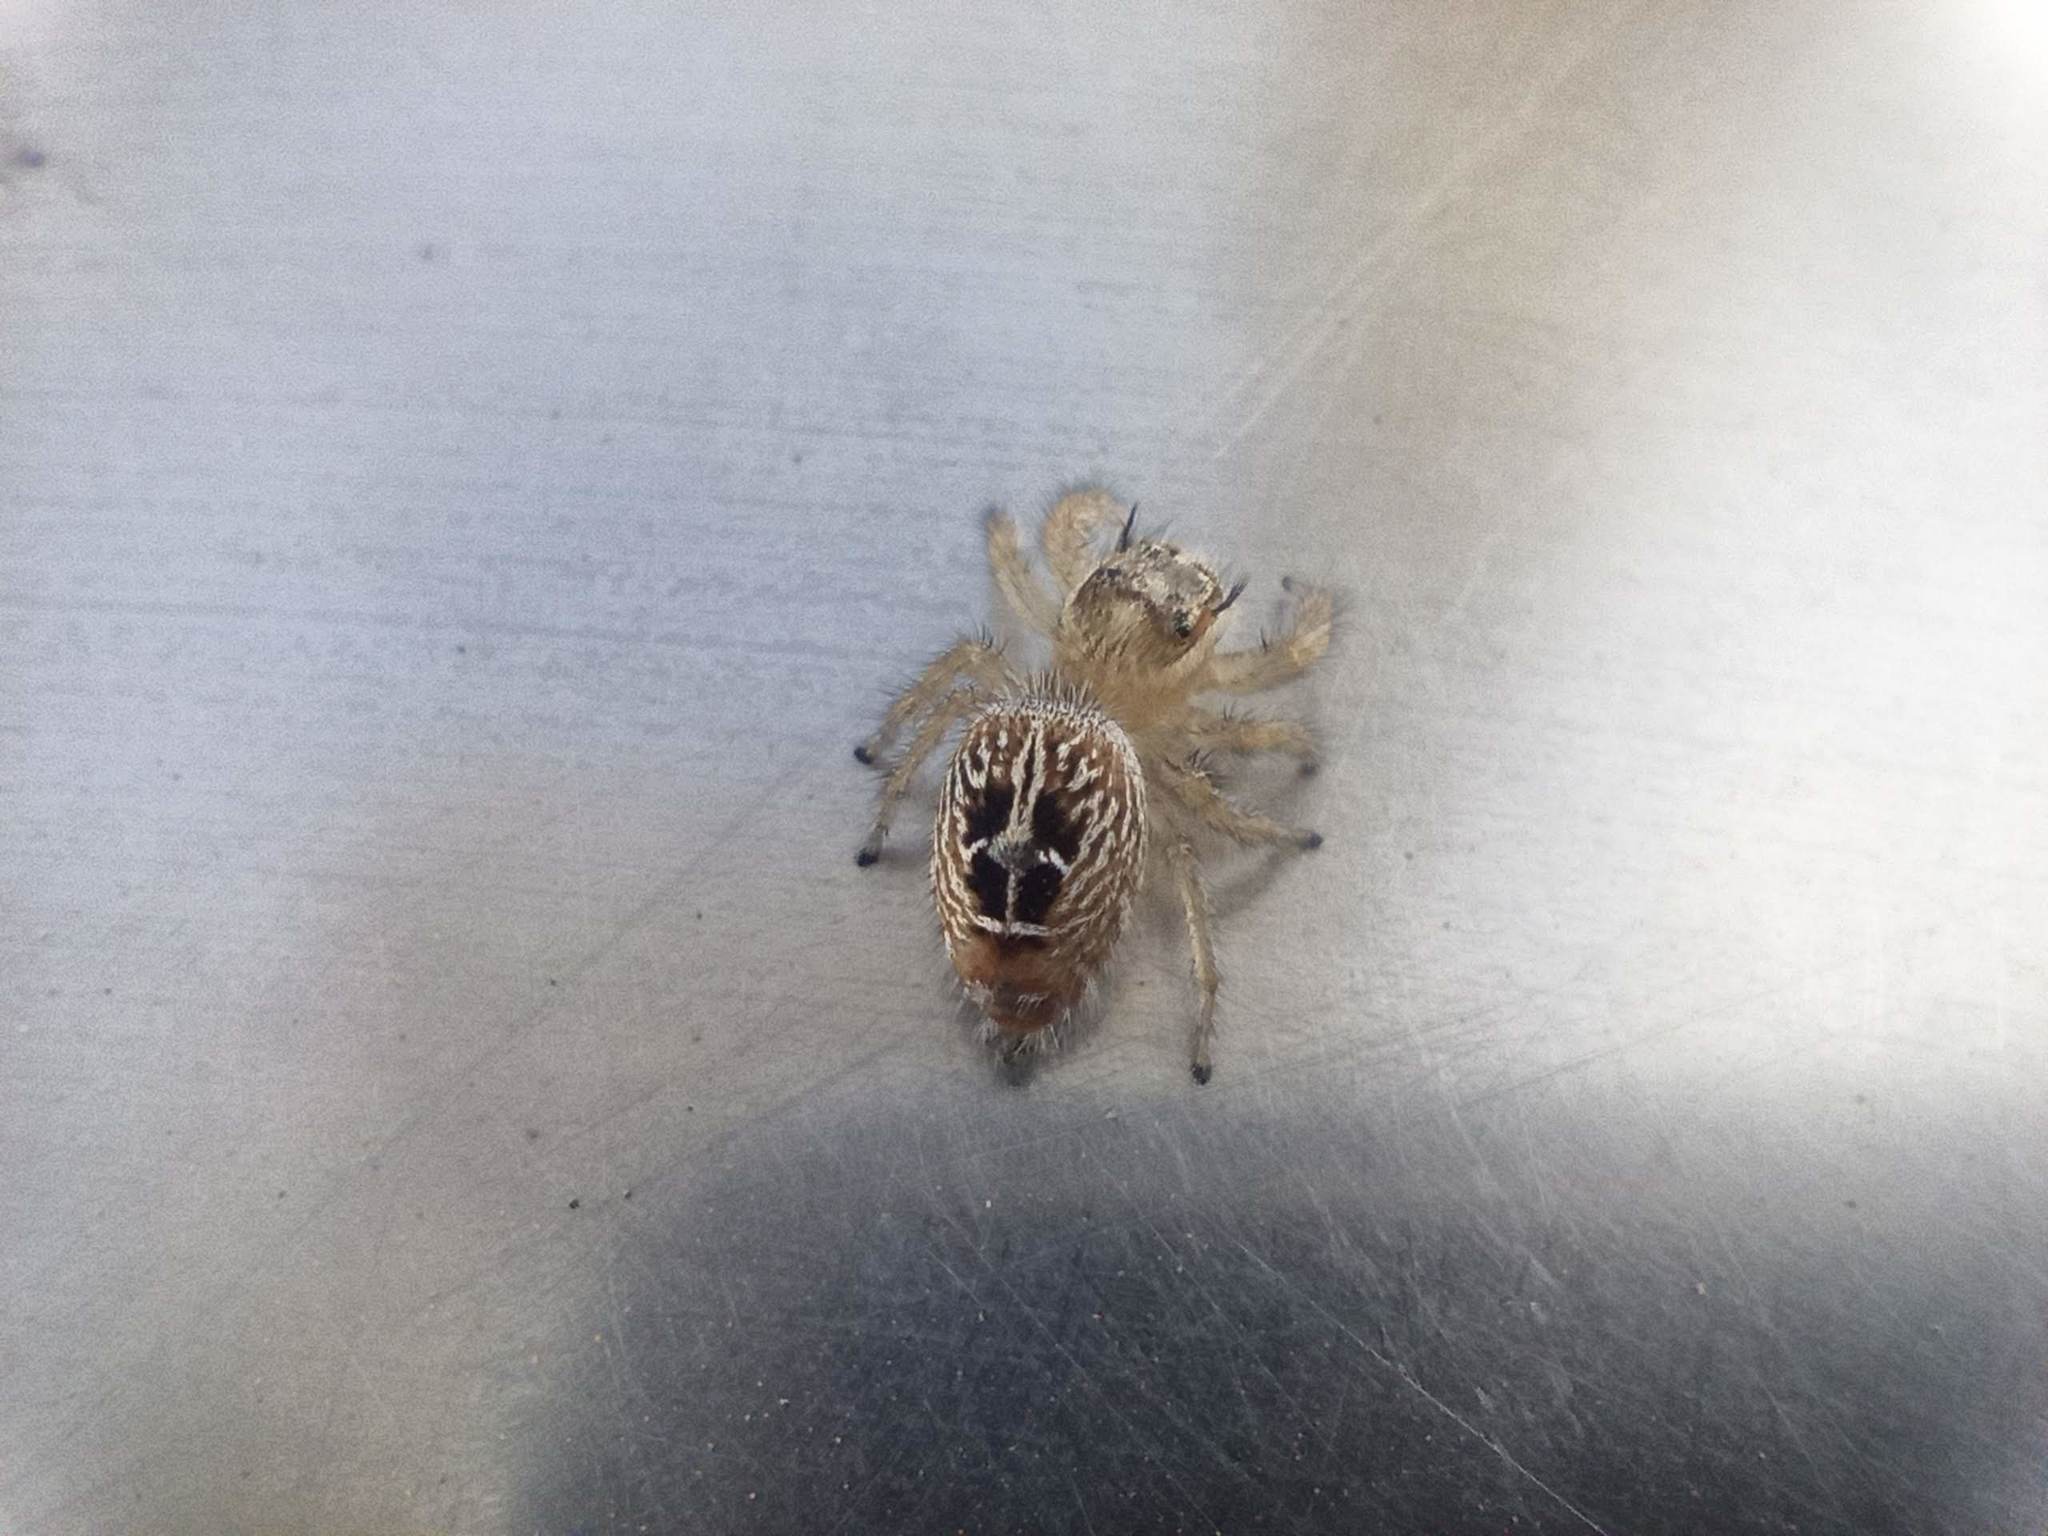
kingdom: Animalia
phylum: Arthropoda
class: Arachnida
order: Araneae
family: Salticidae
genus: Thyene
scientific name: Thyene imperialis
